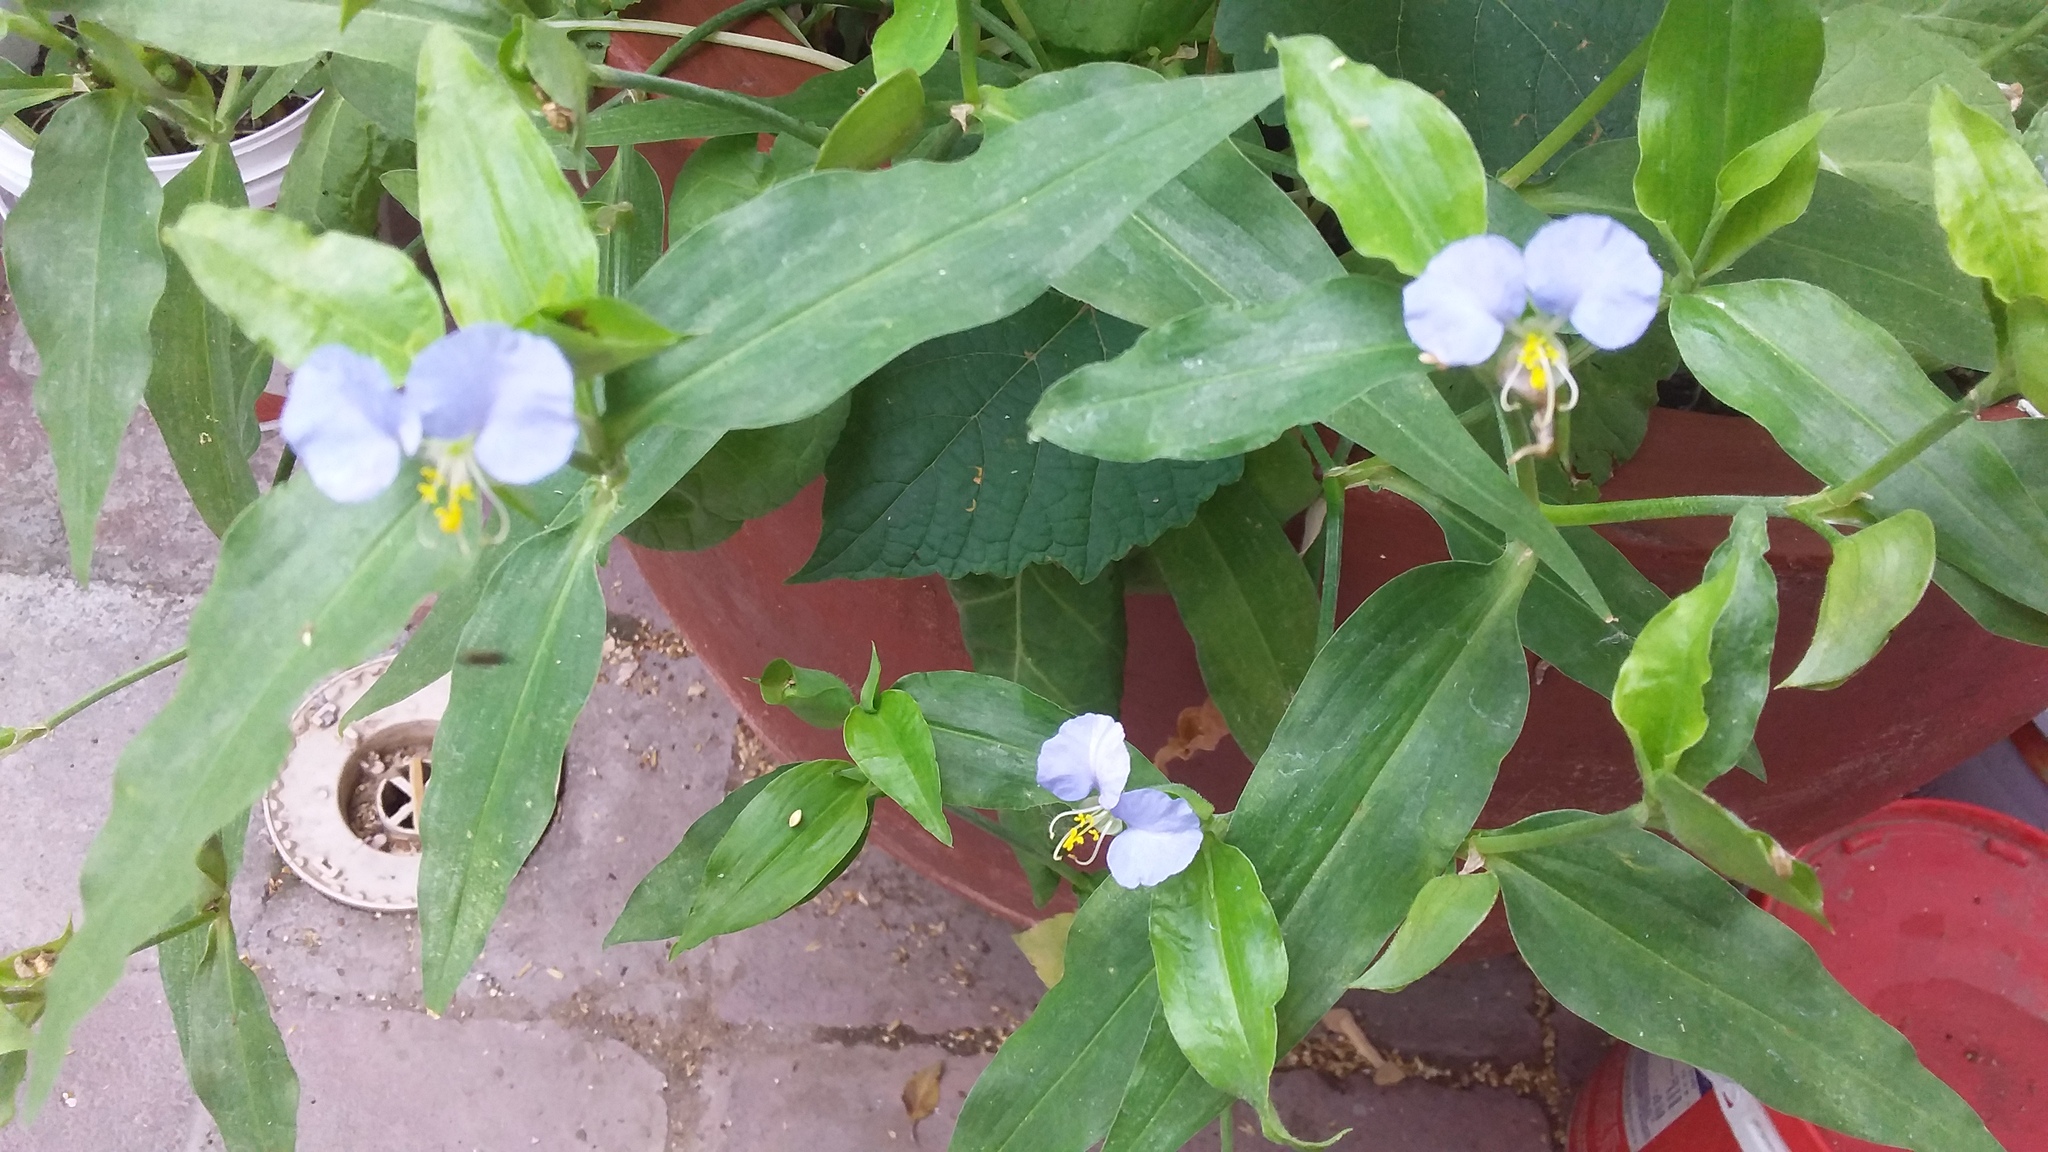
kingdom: Plantae
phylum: Tracheophyta
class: Liliopsida
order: Commelinales
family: Commelinaceae
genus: Commelina
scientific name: Commelina erecta
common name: Blousel blommetjie
